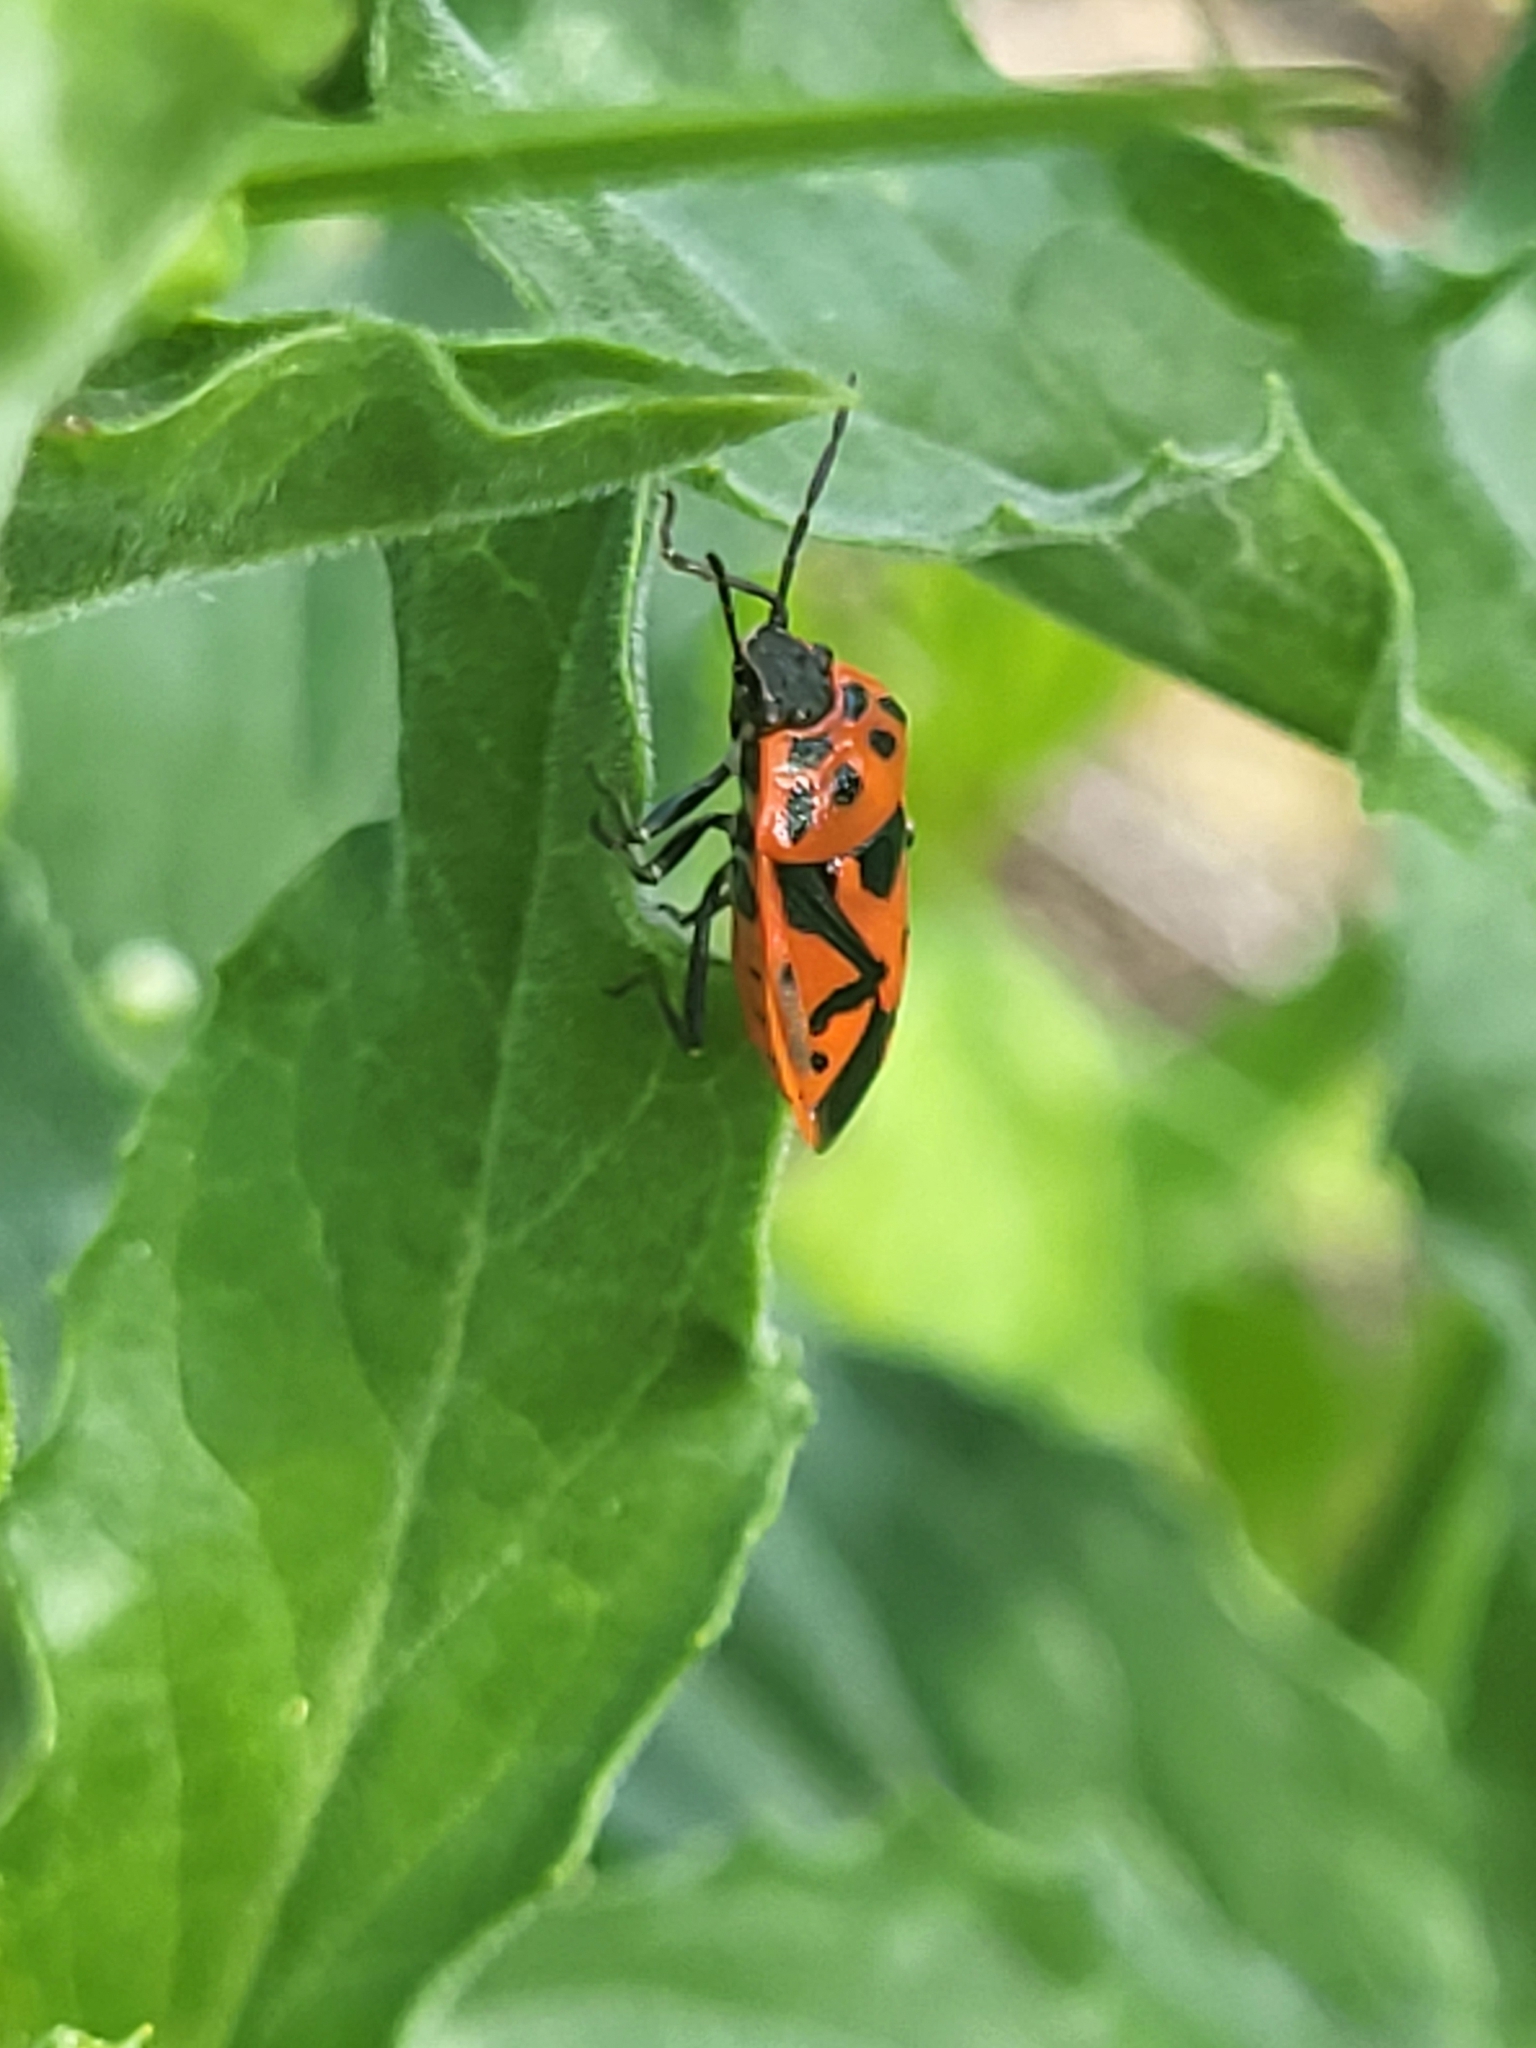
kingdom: Animalia
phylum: Arthropoda
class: Insecta
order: Hemiptera
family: Pentatomidae
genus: Eurydema
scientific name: Eurydema ventralis
